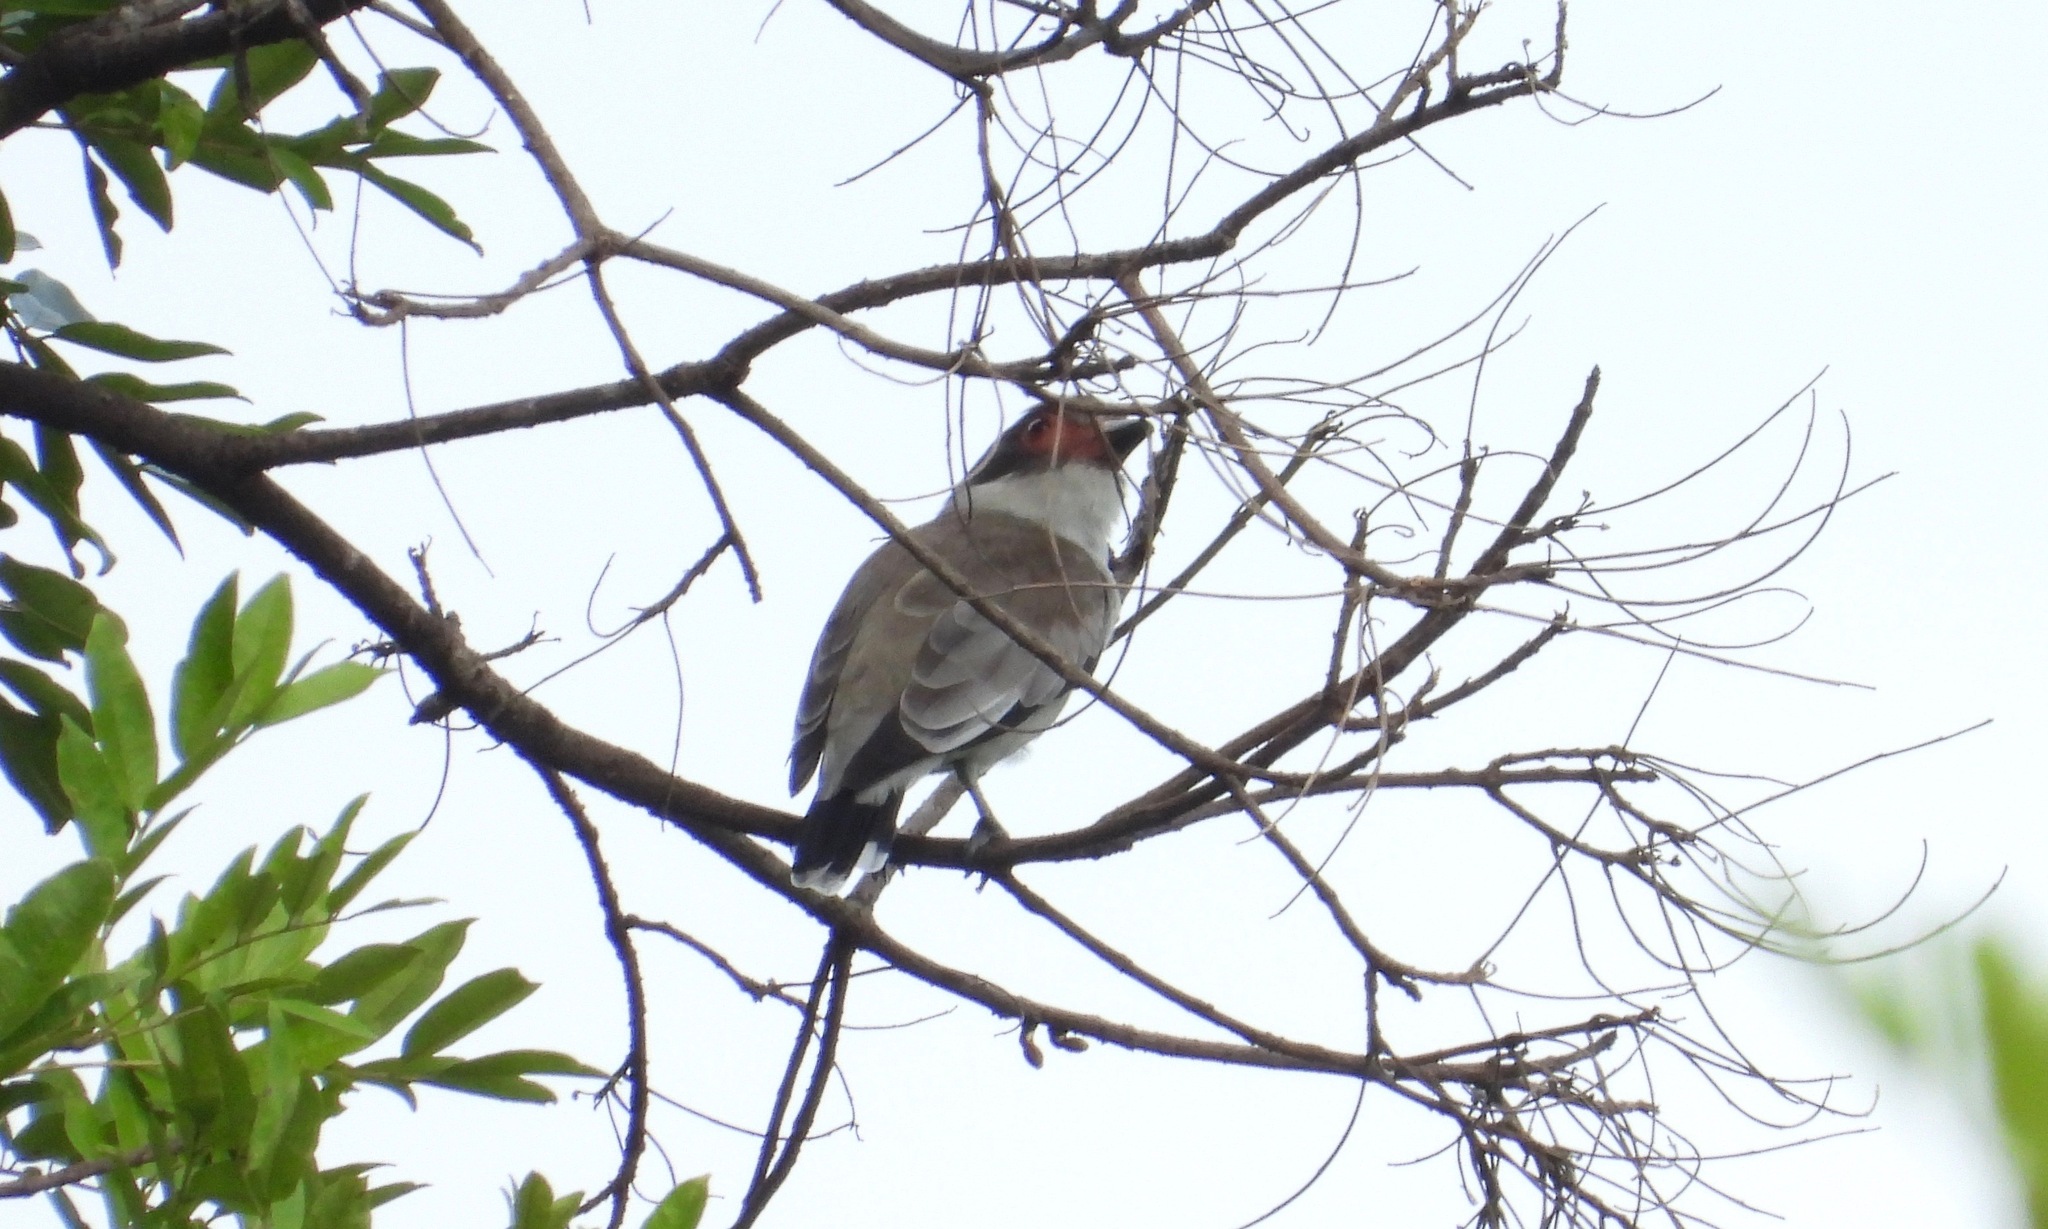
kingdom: Animalia
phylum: Chordata
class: Aves
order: Passeriformes
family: Cotingidae
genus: Tityra
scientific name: Tityra semifasciata
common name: Masked tityra
